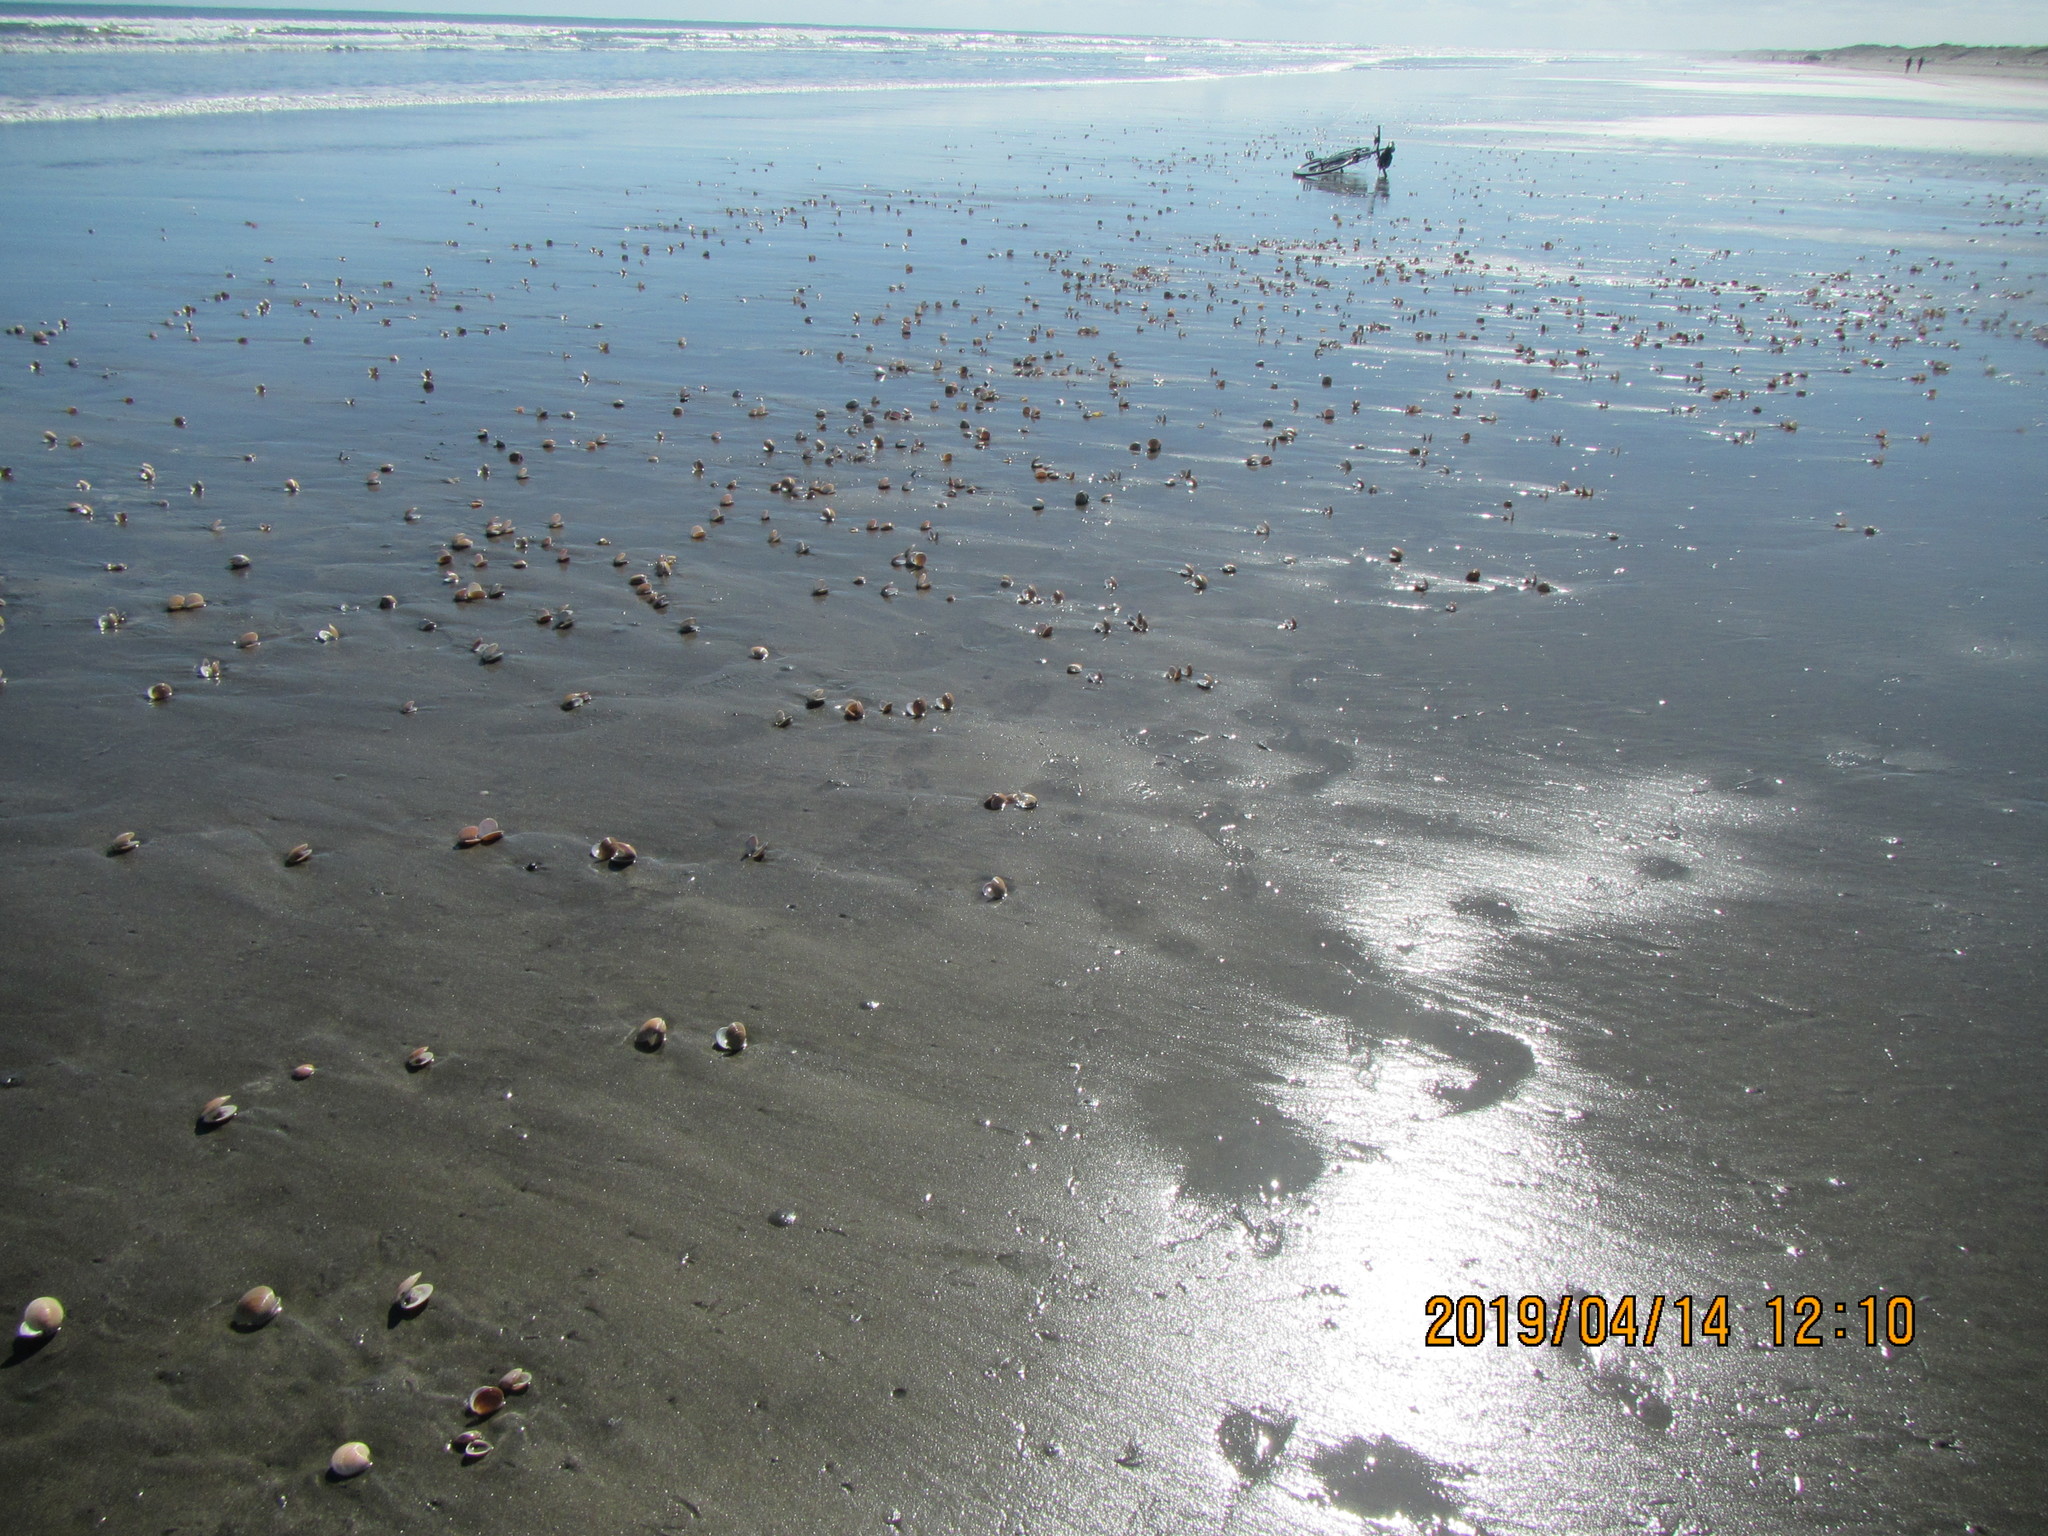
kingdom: Animalia
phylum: Mollusca
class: Bivalvia
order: Venerida
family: Veneridae
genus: Dosinia
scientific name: Dosinia anus
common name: Old-woman dosinia
